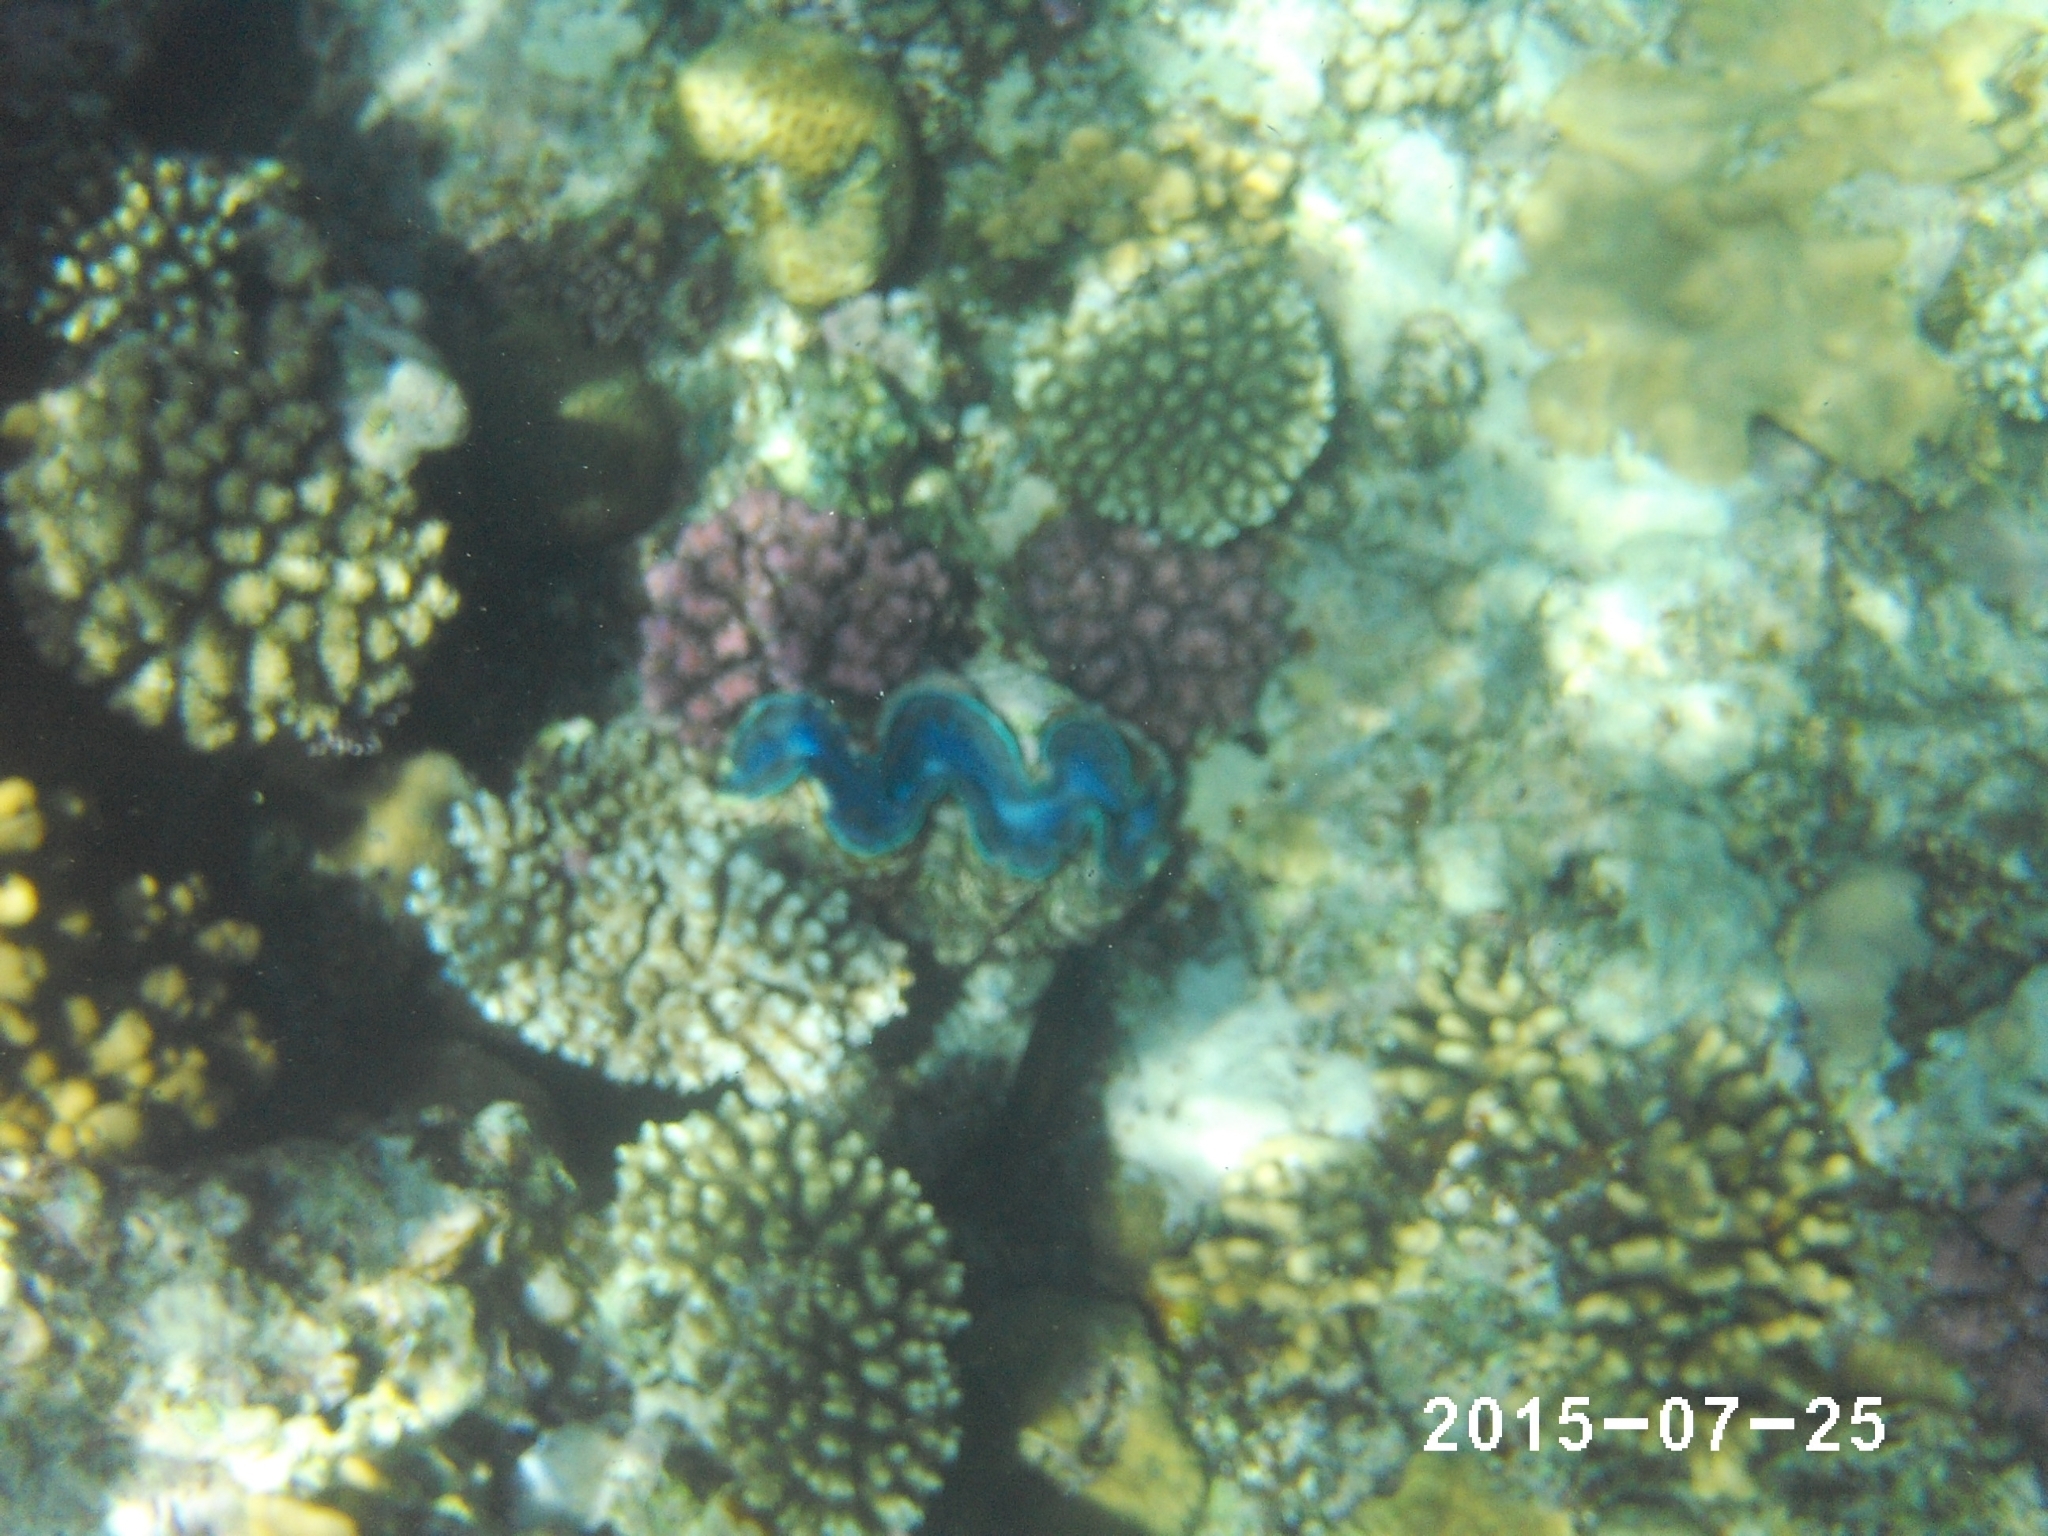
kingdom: Animalia
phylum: Mollusca
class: Bivalvia
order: Cardiida
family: Cardiidae
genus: Tridacna
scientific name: Tridacna maxima
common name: Small giant clam
